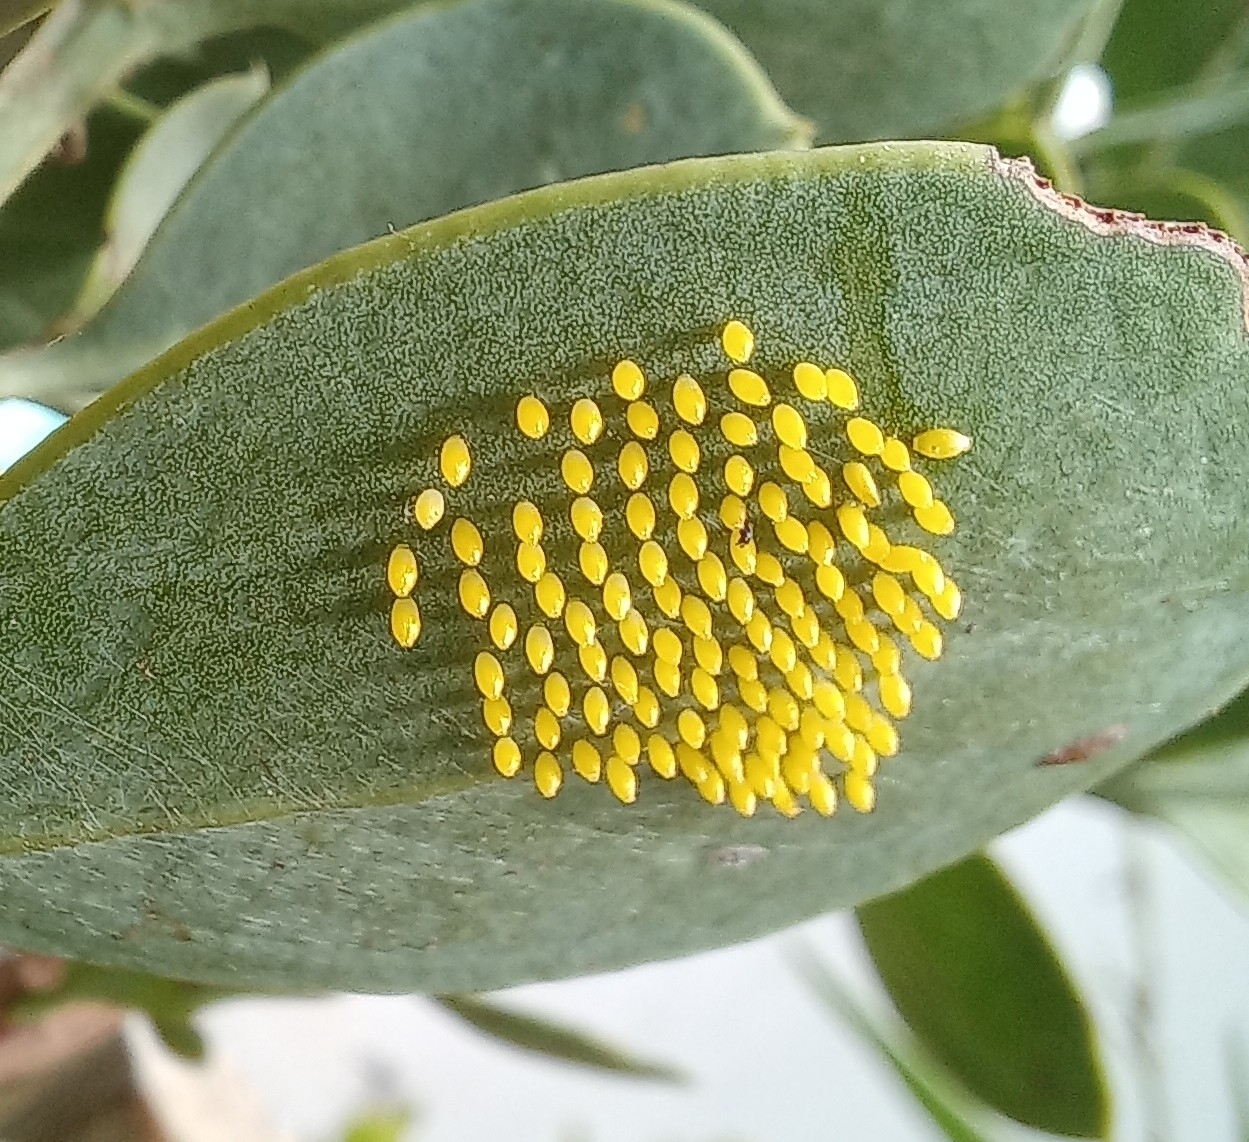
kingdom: Animalia
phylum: Arthropoda
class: Insecta
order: Lepidoptera
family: Pieridae
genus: Mylothris
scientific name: Mylothris agathina
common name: Eastern dotted border
